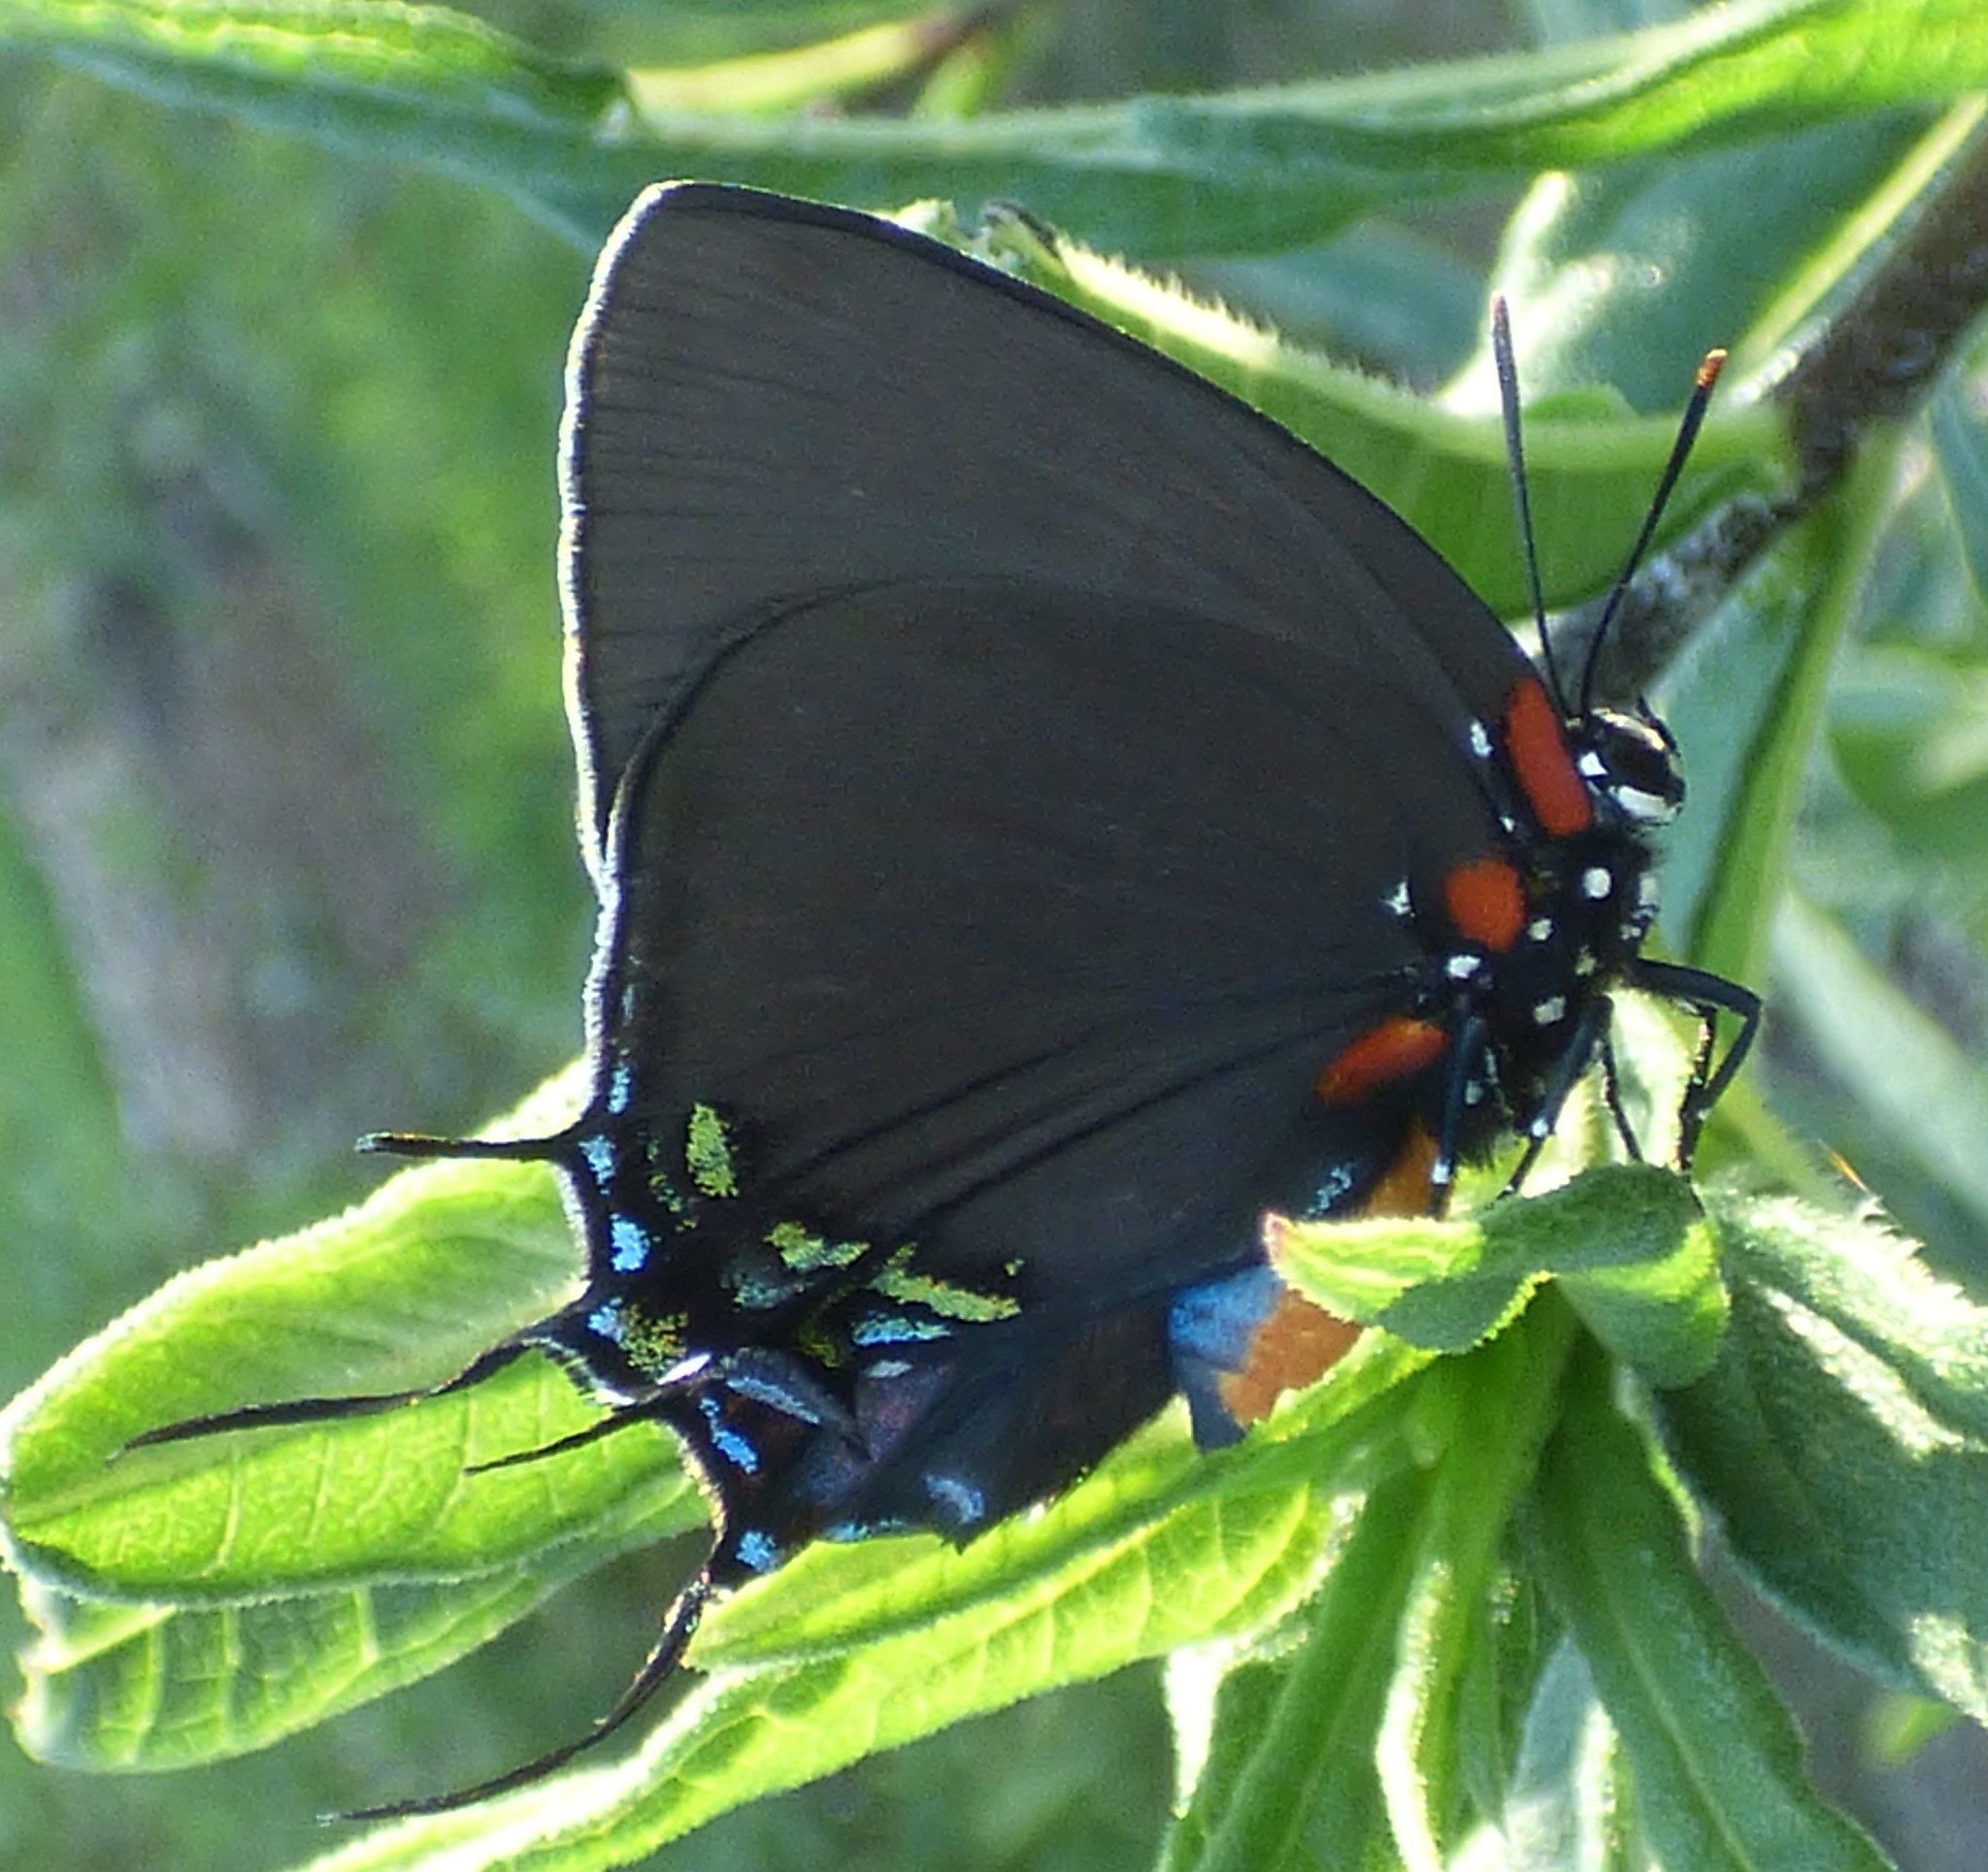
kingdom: Animalia
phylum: Arthropoda
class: Insecta
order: Lepidoptera
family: Lycaenidae
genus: Atlides
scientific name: Atlides halesus
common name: Great purple hairstreak
